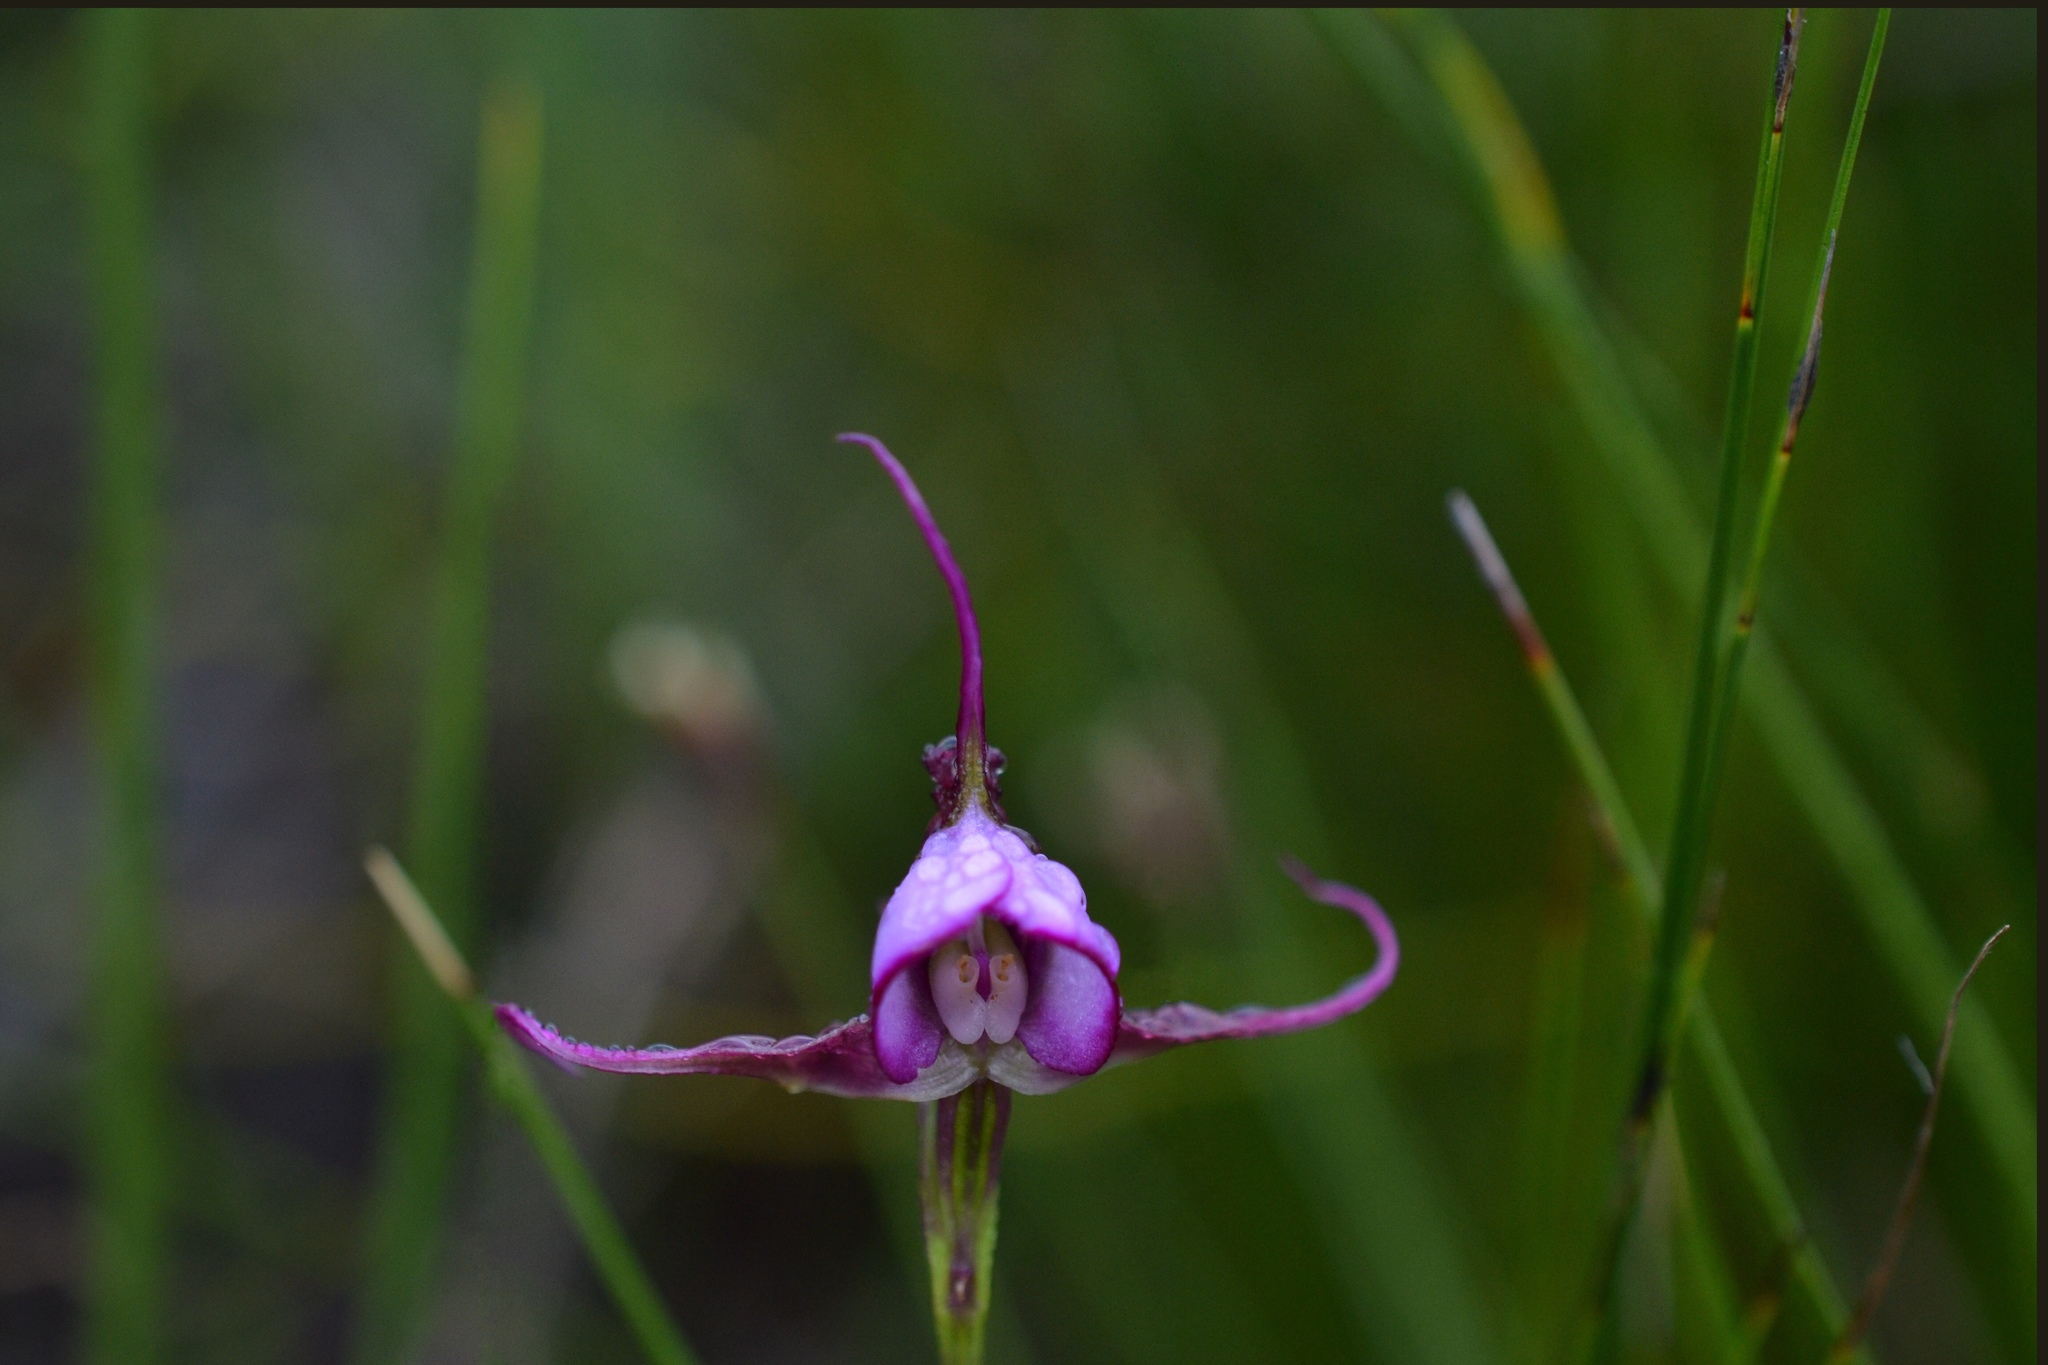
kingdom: Plantae
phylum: Tracheophyta
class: Liliopsida
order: Asparagales
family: Orchidaceae
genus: Disperis
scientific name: Disperis capensis
